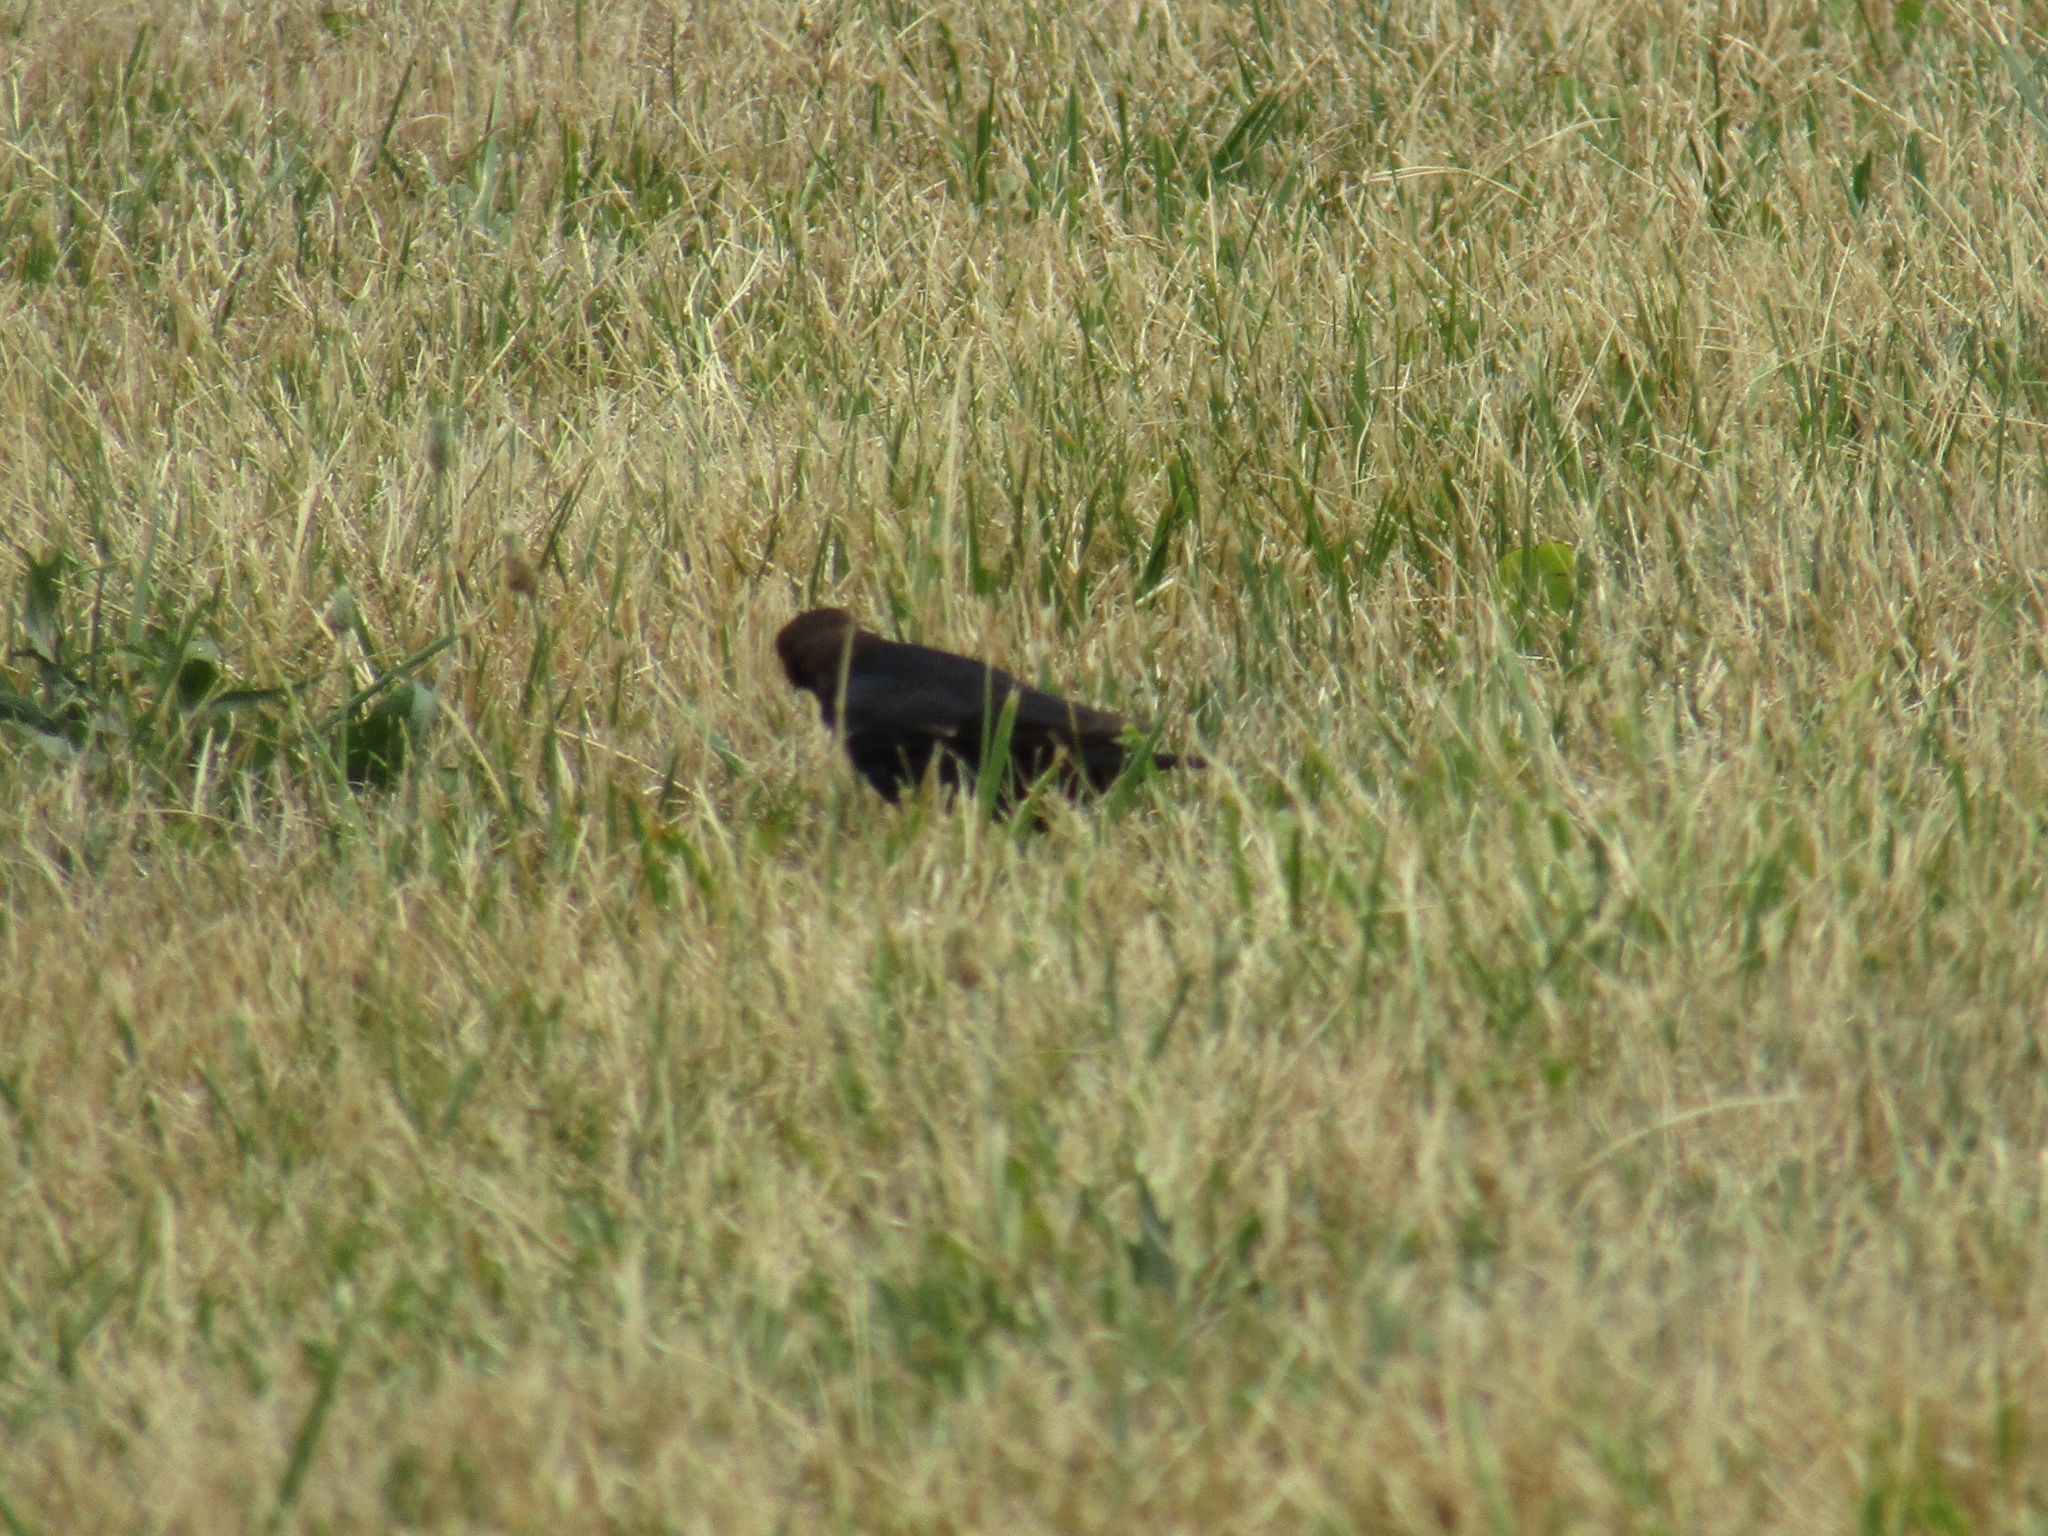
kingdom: Animalia
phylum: Chordata
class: Aves
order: Passeriformes
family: Icteridae
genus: Molothrus
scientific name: Molothrus ater
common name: Brown-headed cowbird
